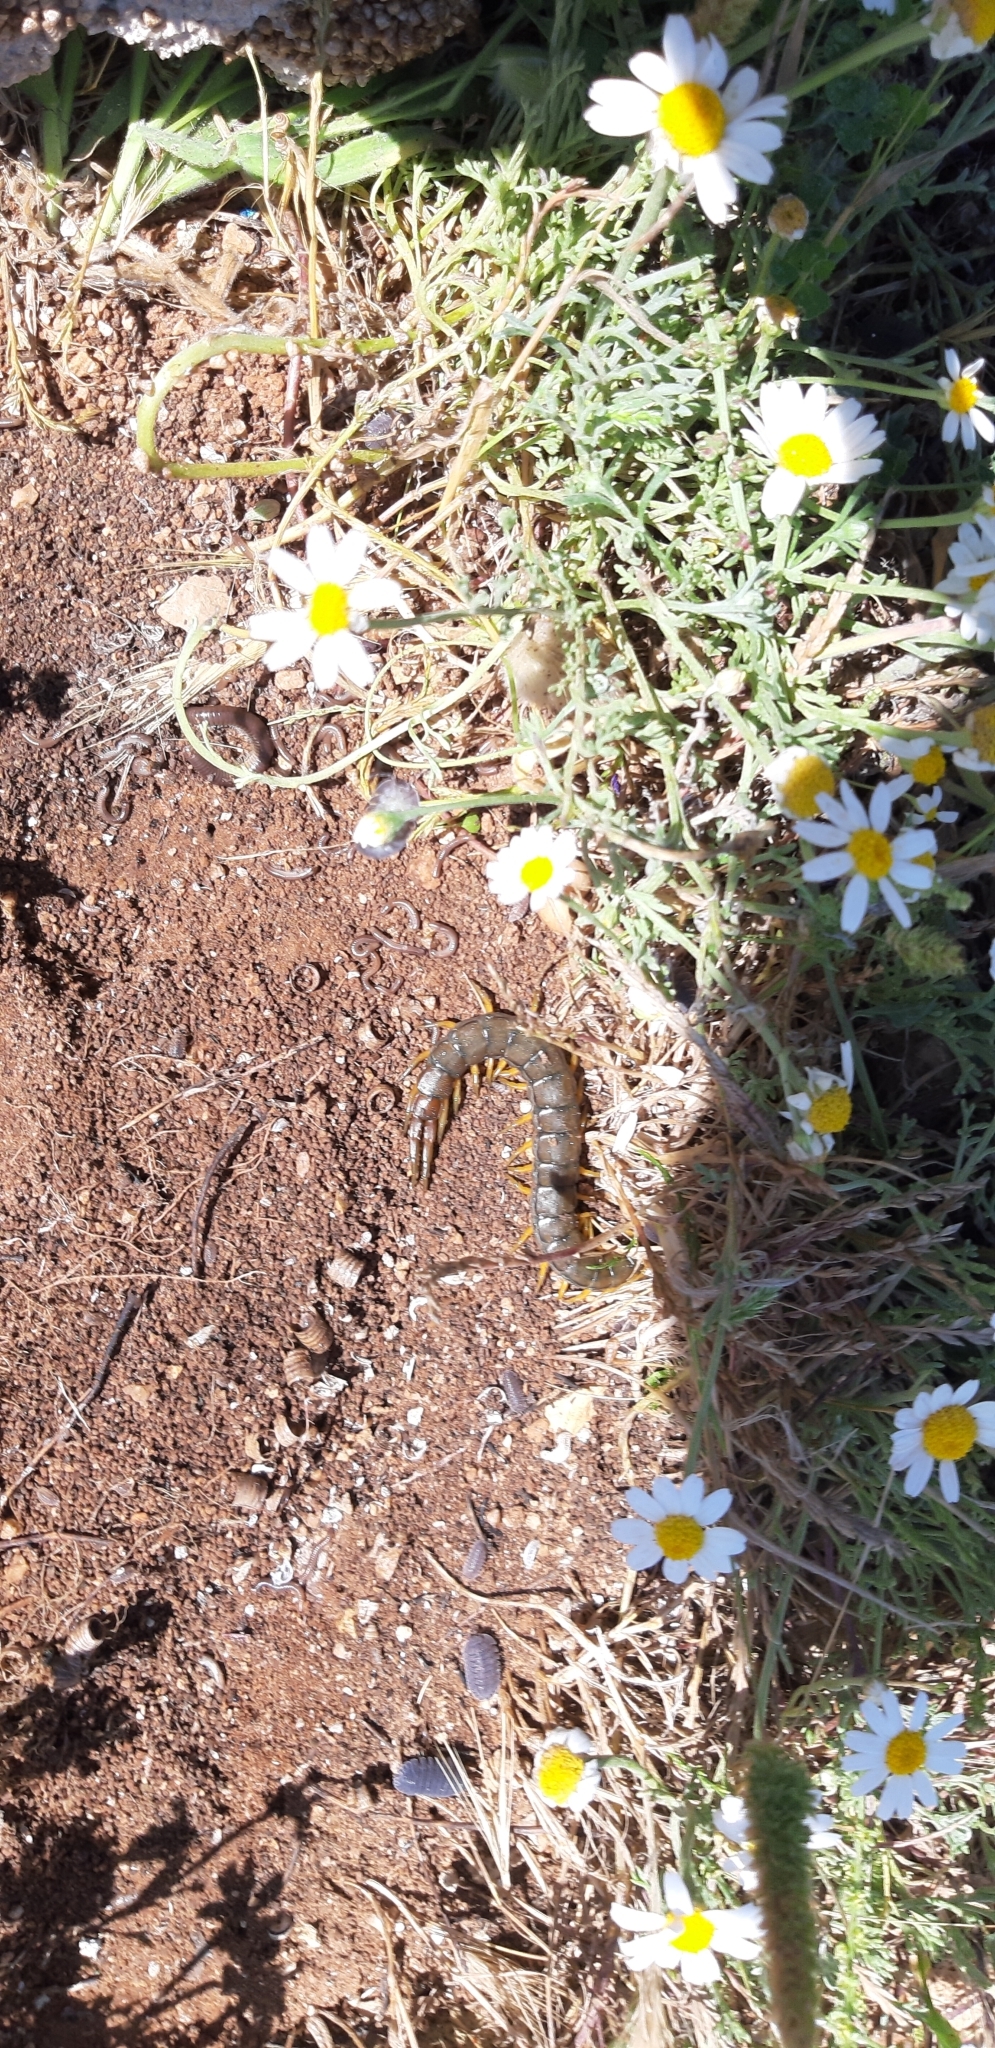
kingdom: Animalia
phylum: Arthropoda
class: Chilopoda
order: Scolopendromorpha
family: Scolopendridae
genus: Scolopendra
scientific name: Scolopendra cingulata
